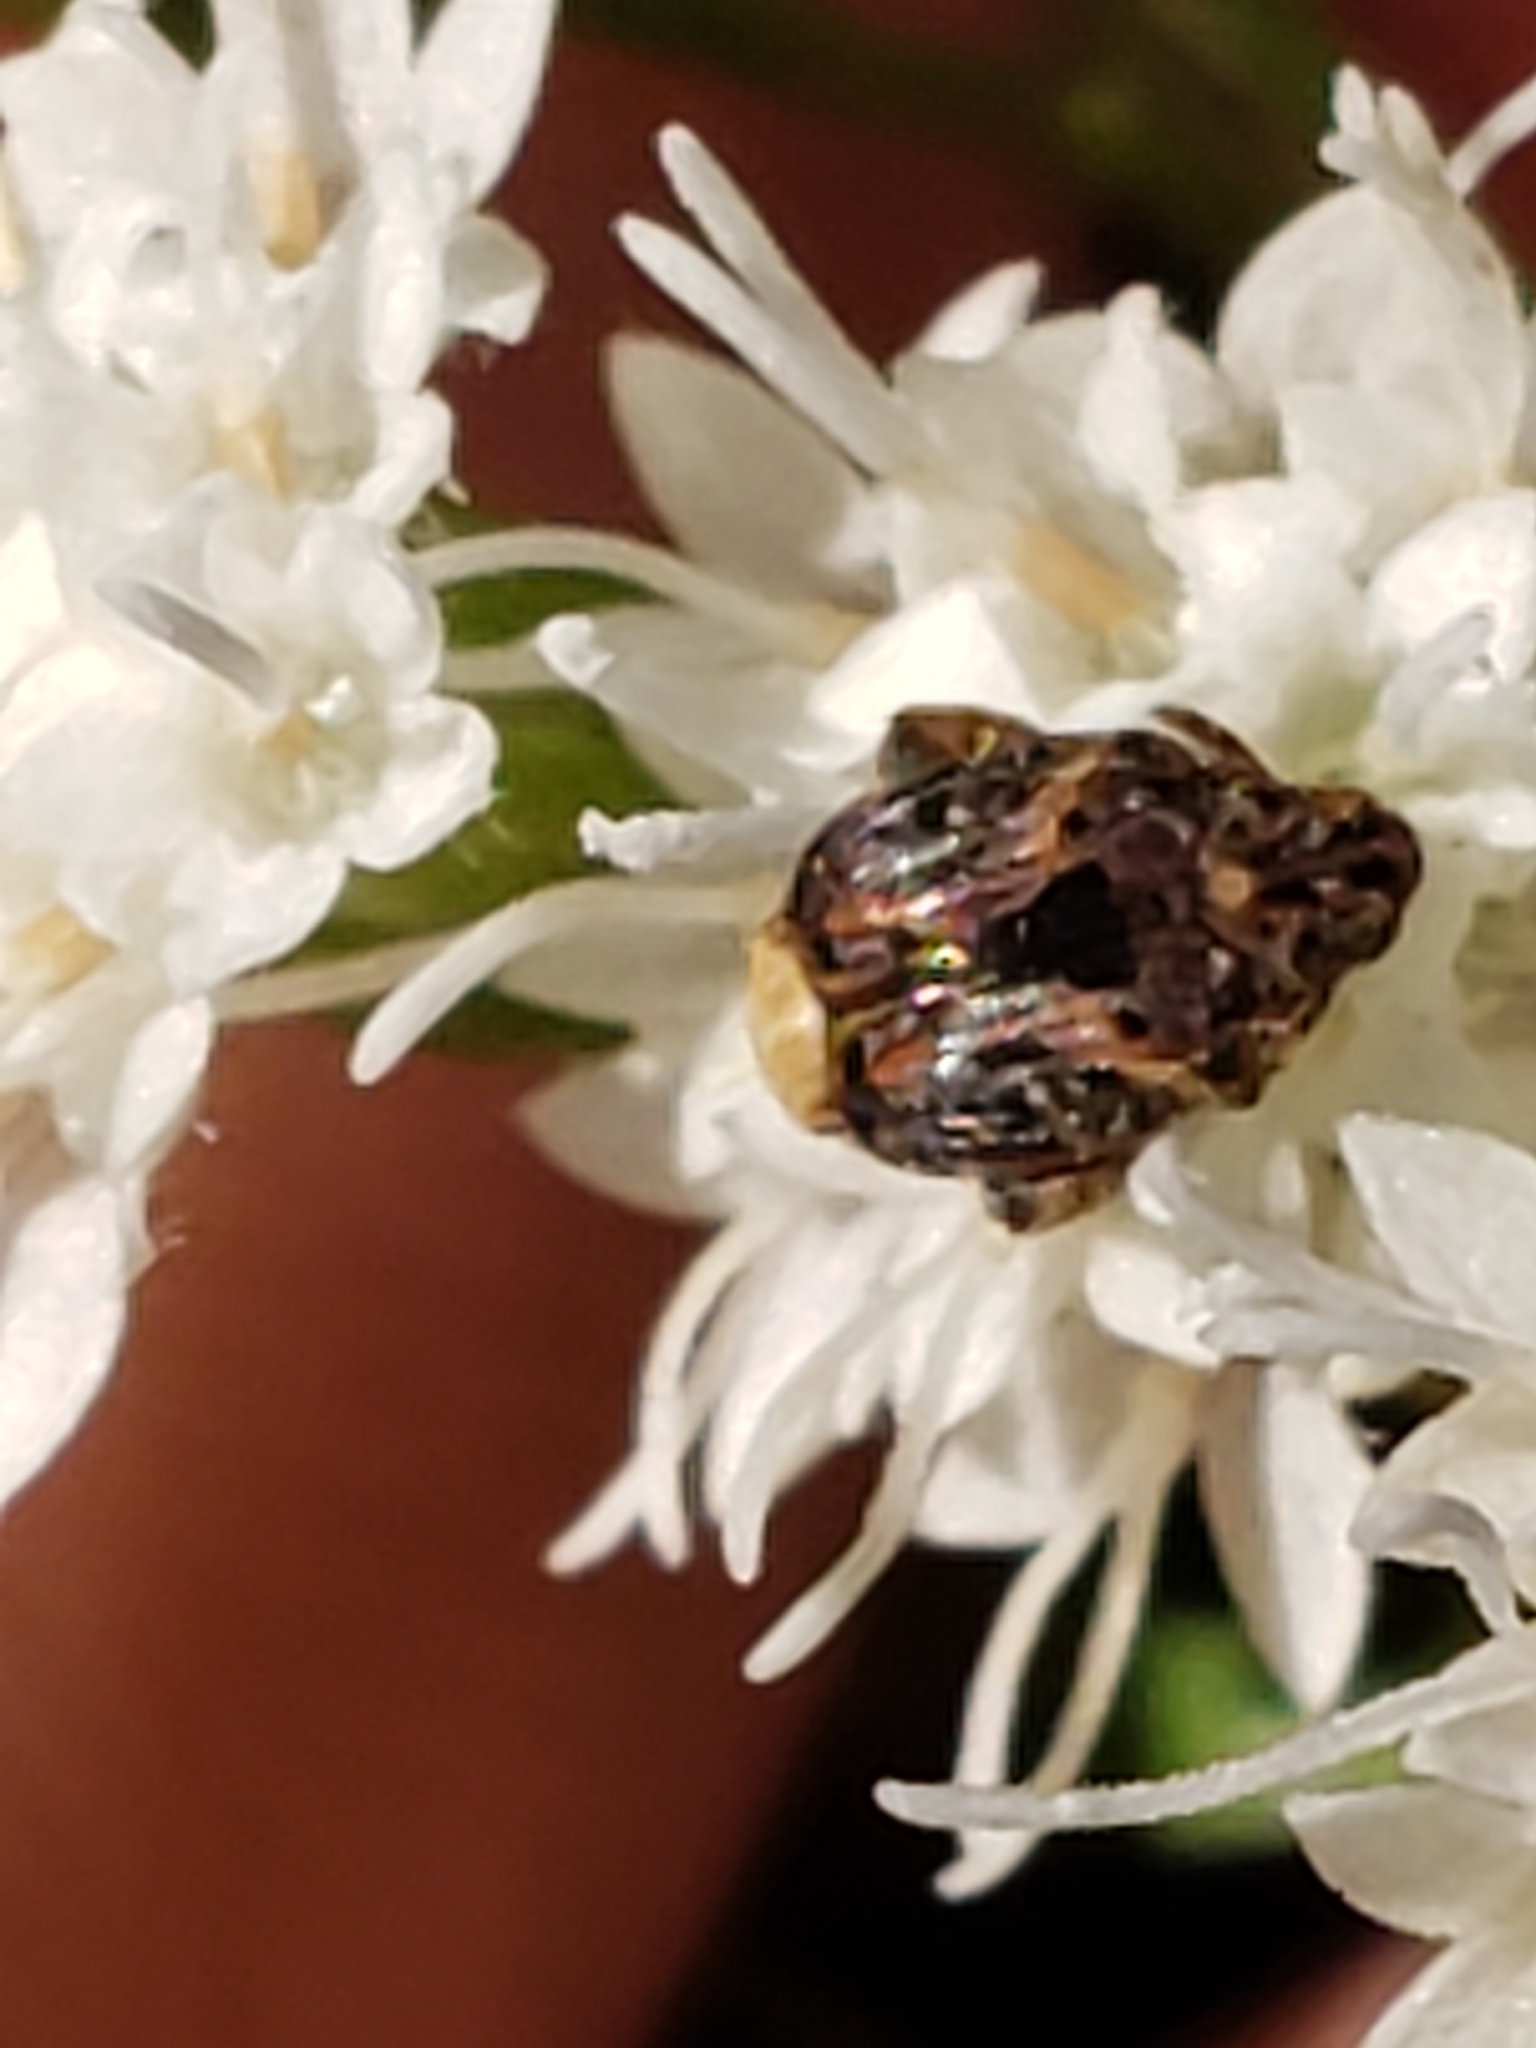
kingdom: Animalia
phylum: Arthropoda
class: Insecta
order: Coleoptera
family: Chrysomelidae
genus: Gibbobruchus
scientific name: Gibbobruchus mimus
